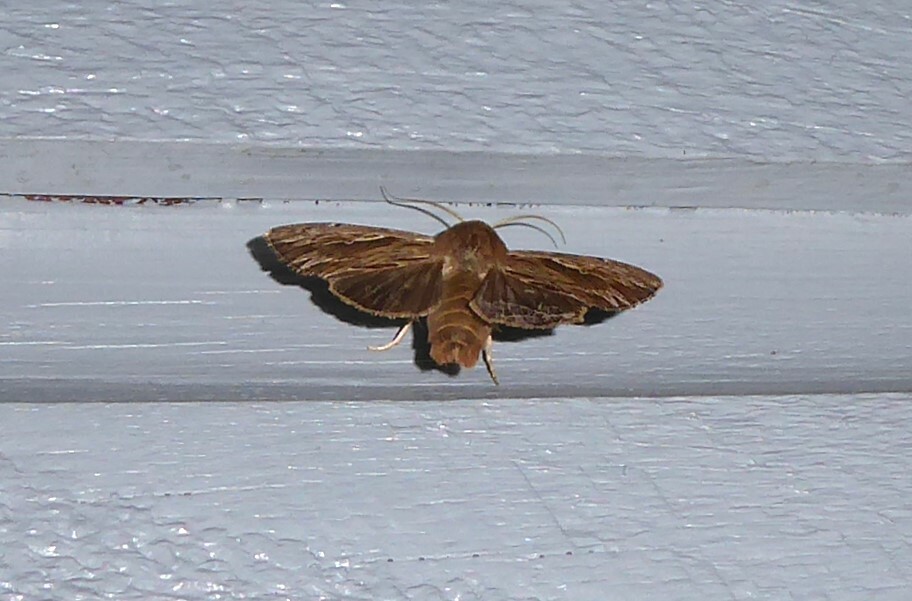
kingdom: Animalia
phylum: Arthropoda
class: Insecta
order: Lepidoptera
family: Noctuidae
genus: Persectania
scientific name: Persectania aversa
